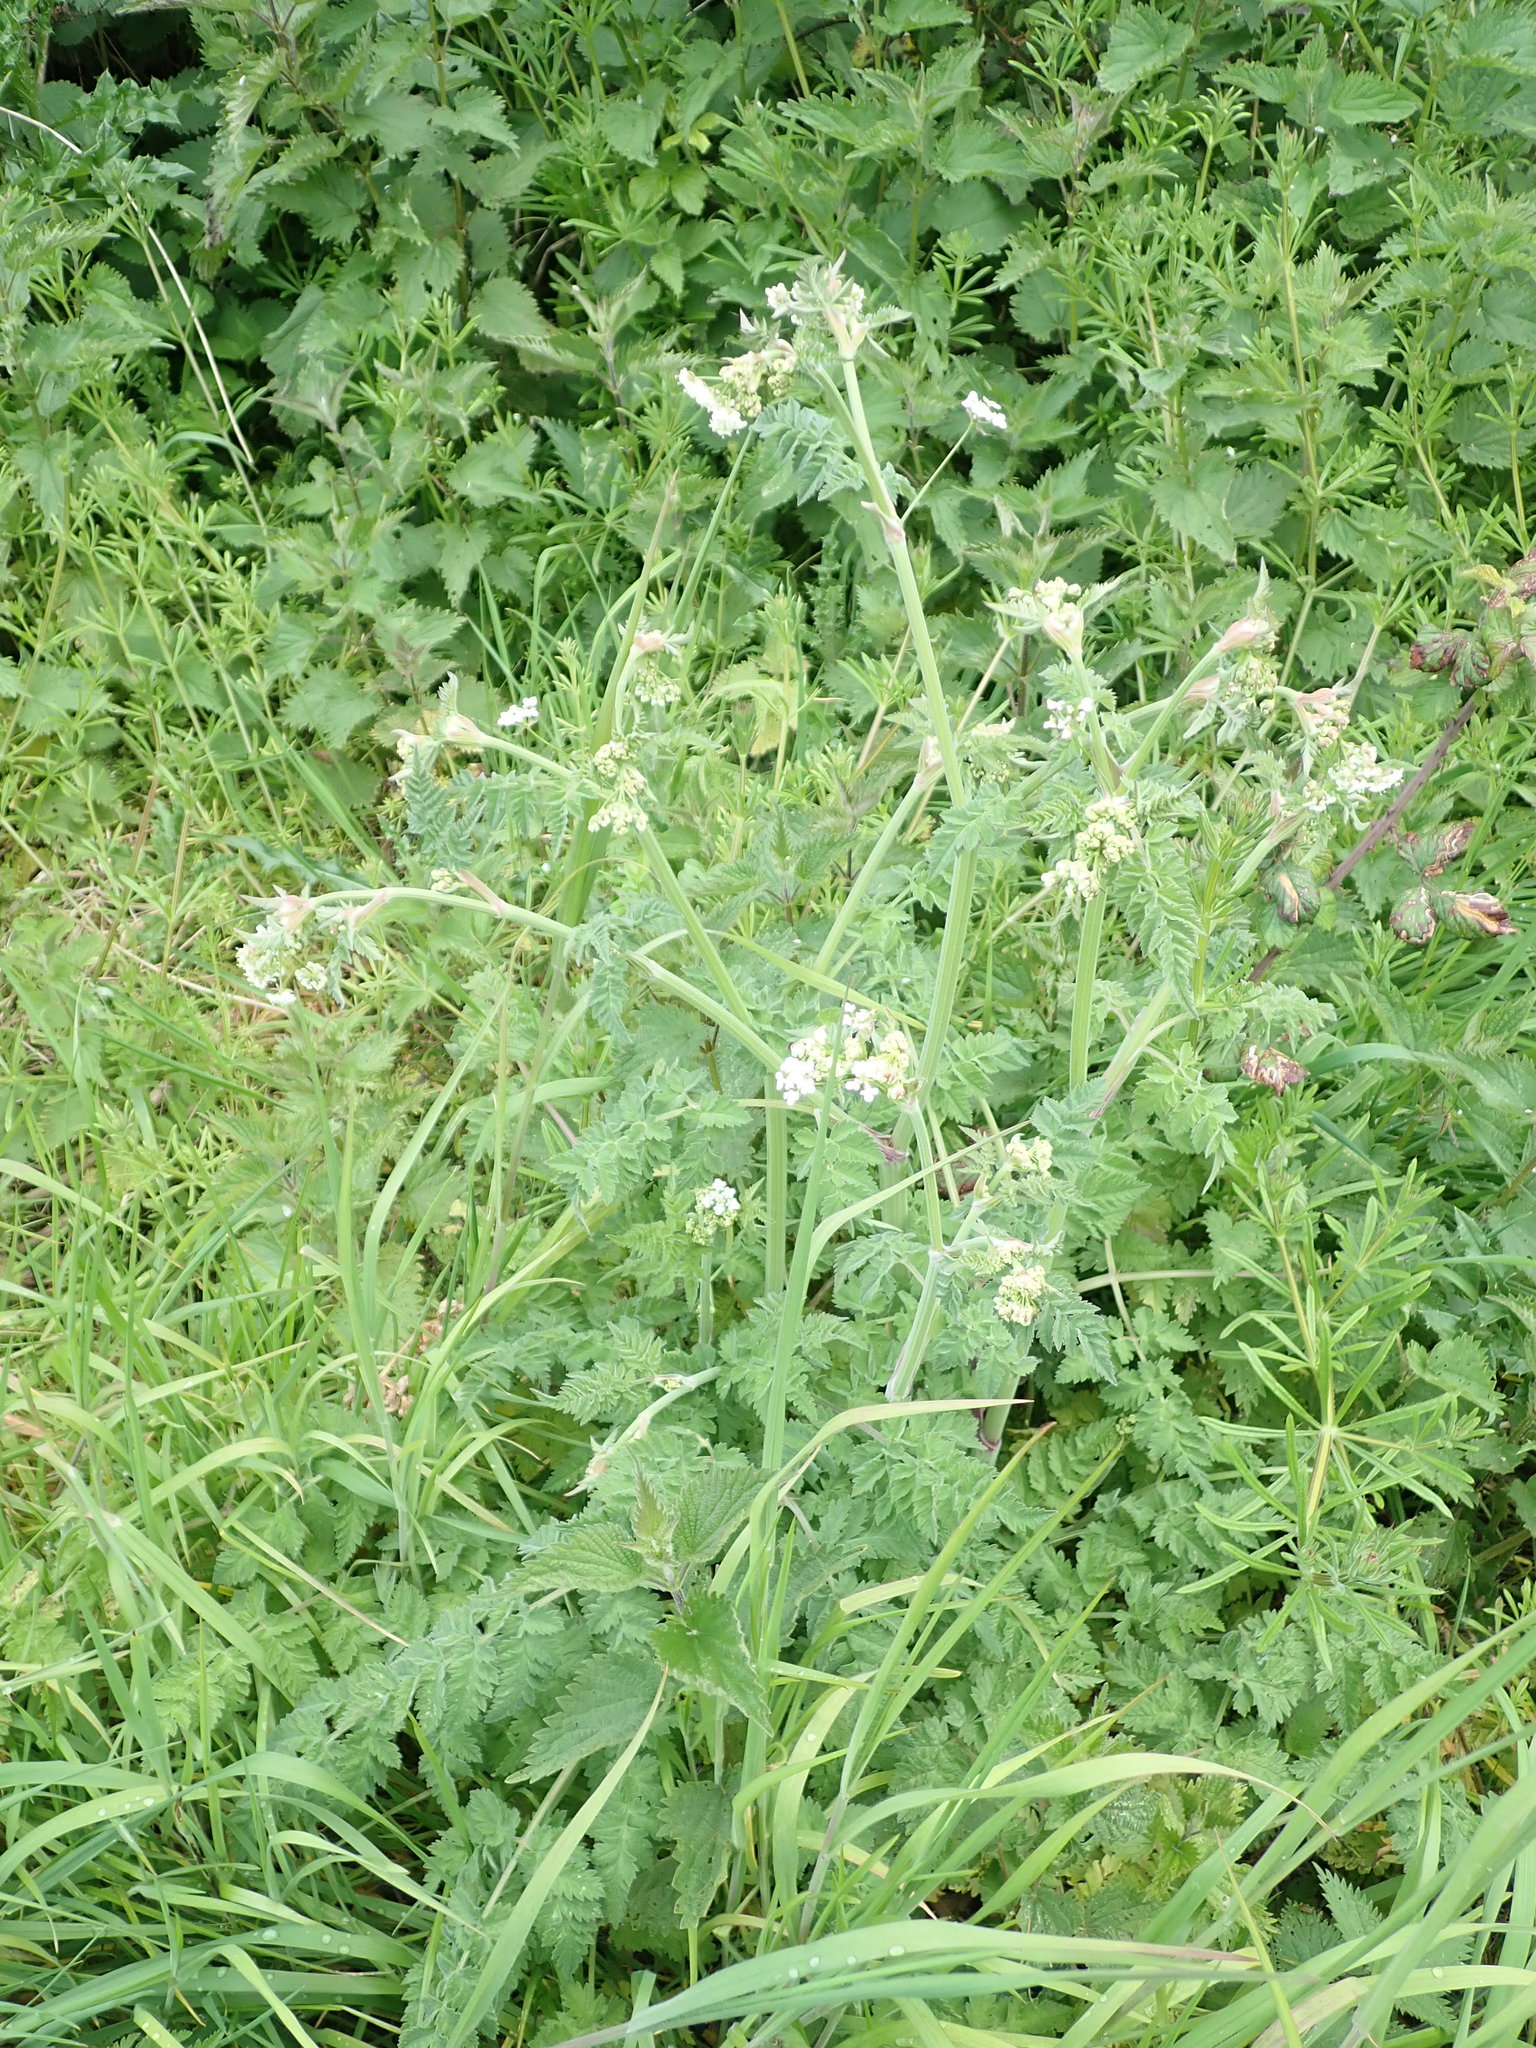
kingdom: Plantae
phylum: Tracheophyta
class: Magnoliopsida
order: Apiales
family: Apiaceae
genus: Anthriscus
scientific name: Anthriscus sylvestris
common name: Cow parsley
